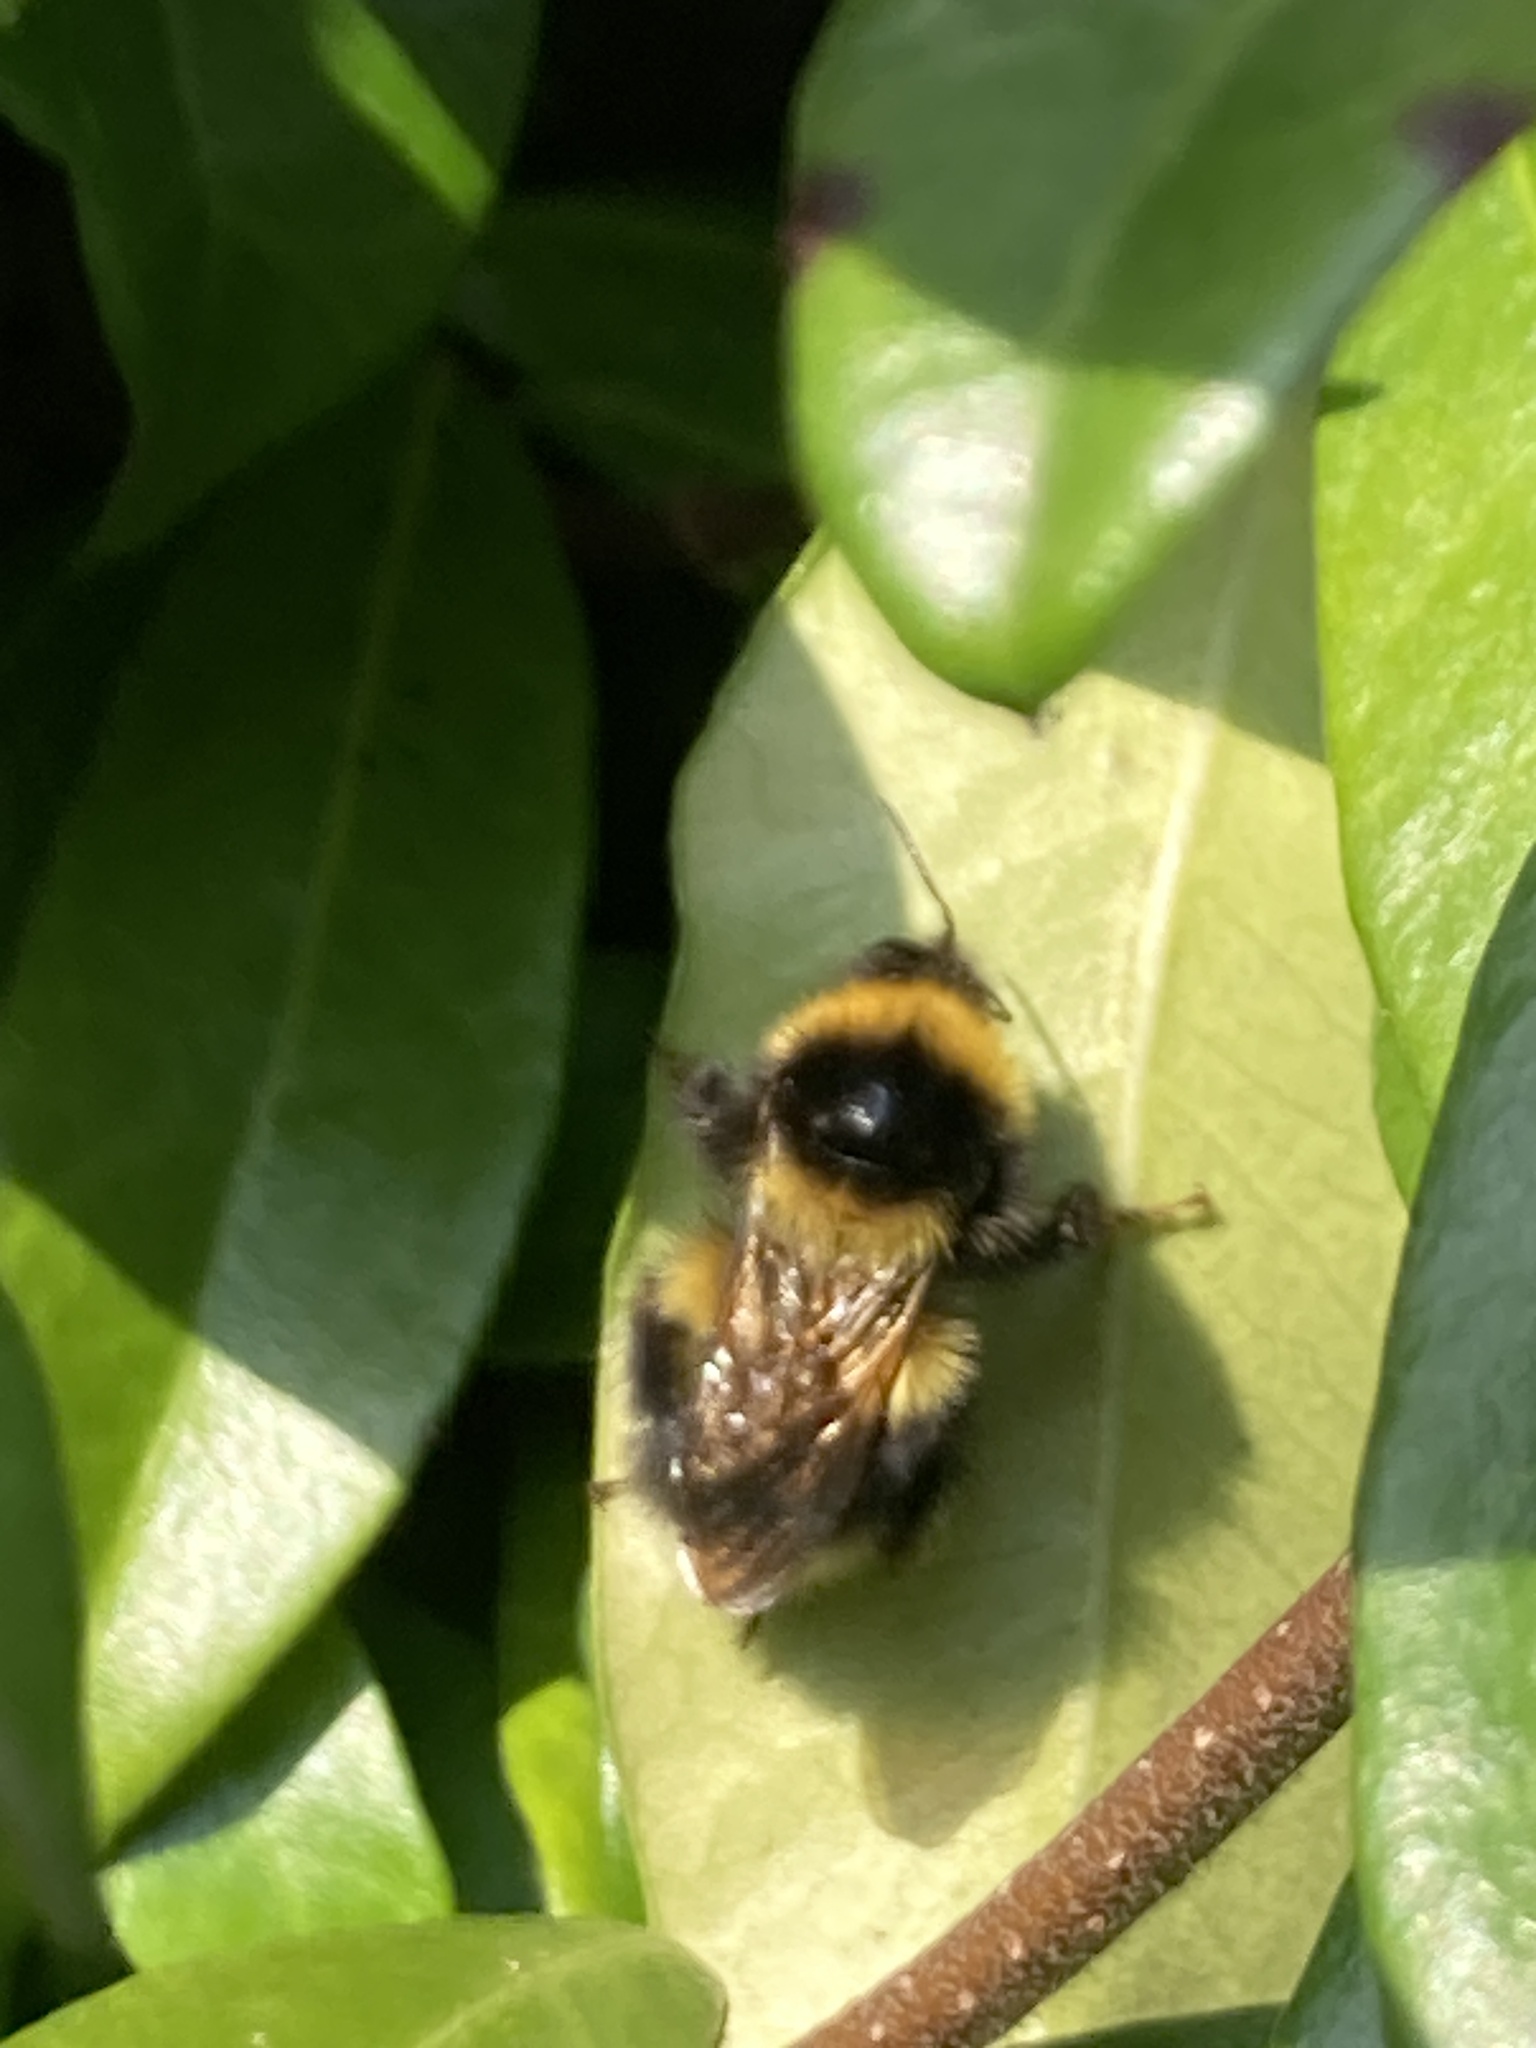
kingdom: Animalia
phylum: Arthropoda
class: Insecta
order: Hymenoptera
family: Apidae
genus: Bombus
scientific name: Bombus hortorum
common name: Garden bumblebee
